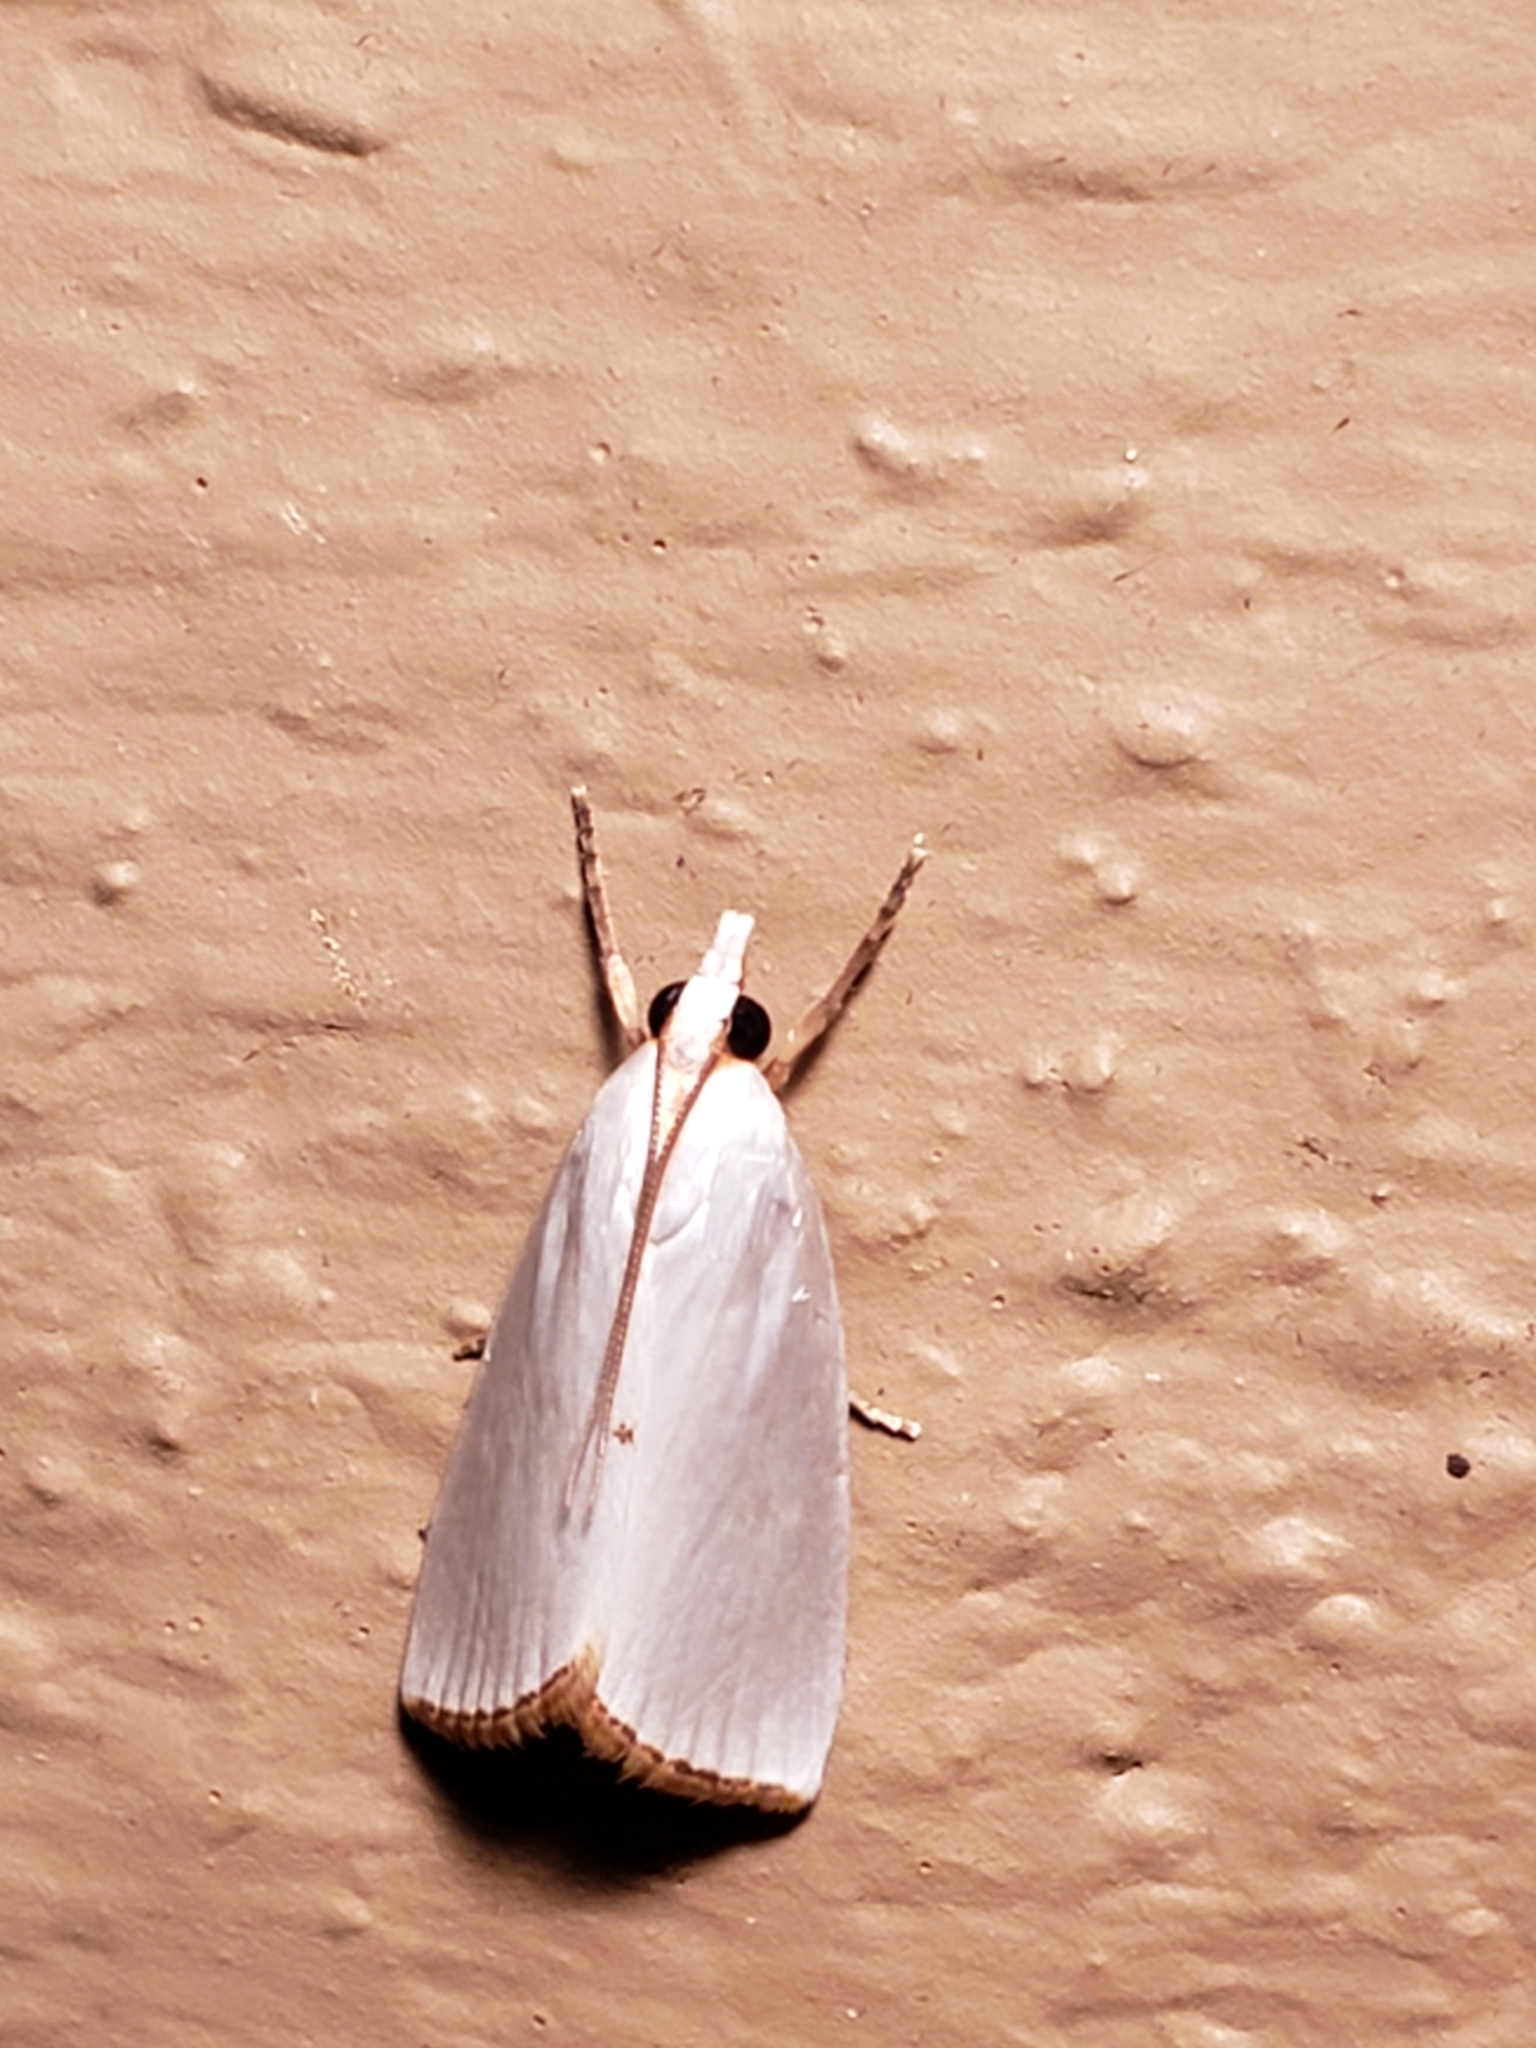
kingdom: Animalia
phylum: Arthropoda
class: Insecta
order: Lepidoptera
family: Crambidae
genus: Argyria
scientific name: Argyria nivalis
